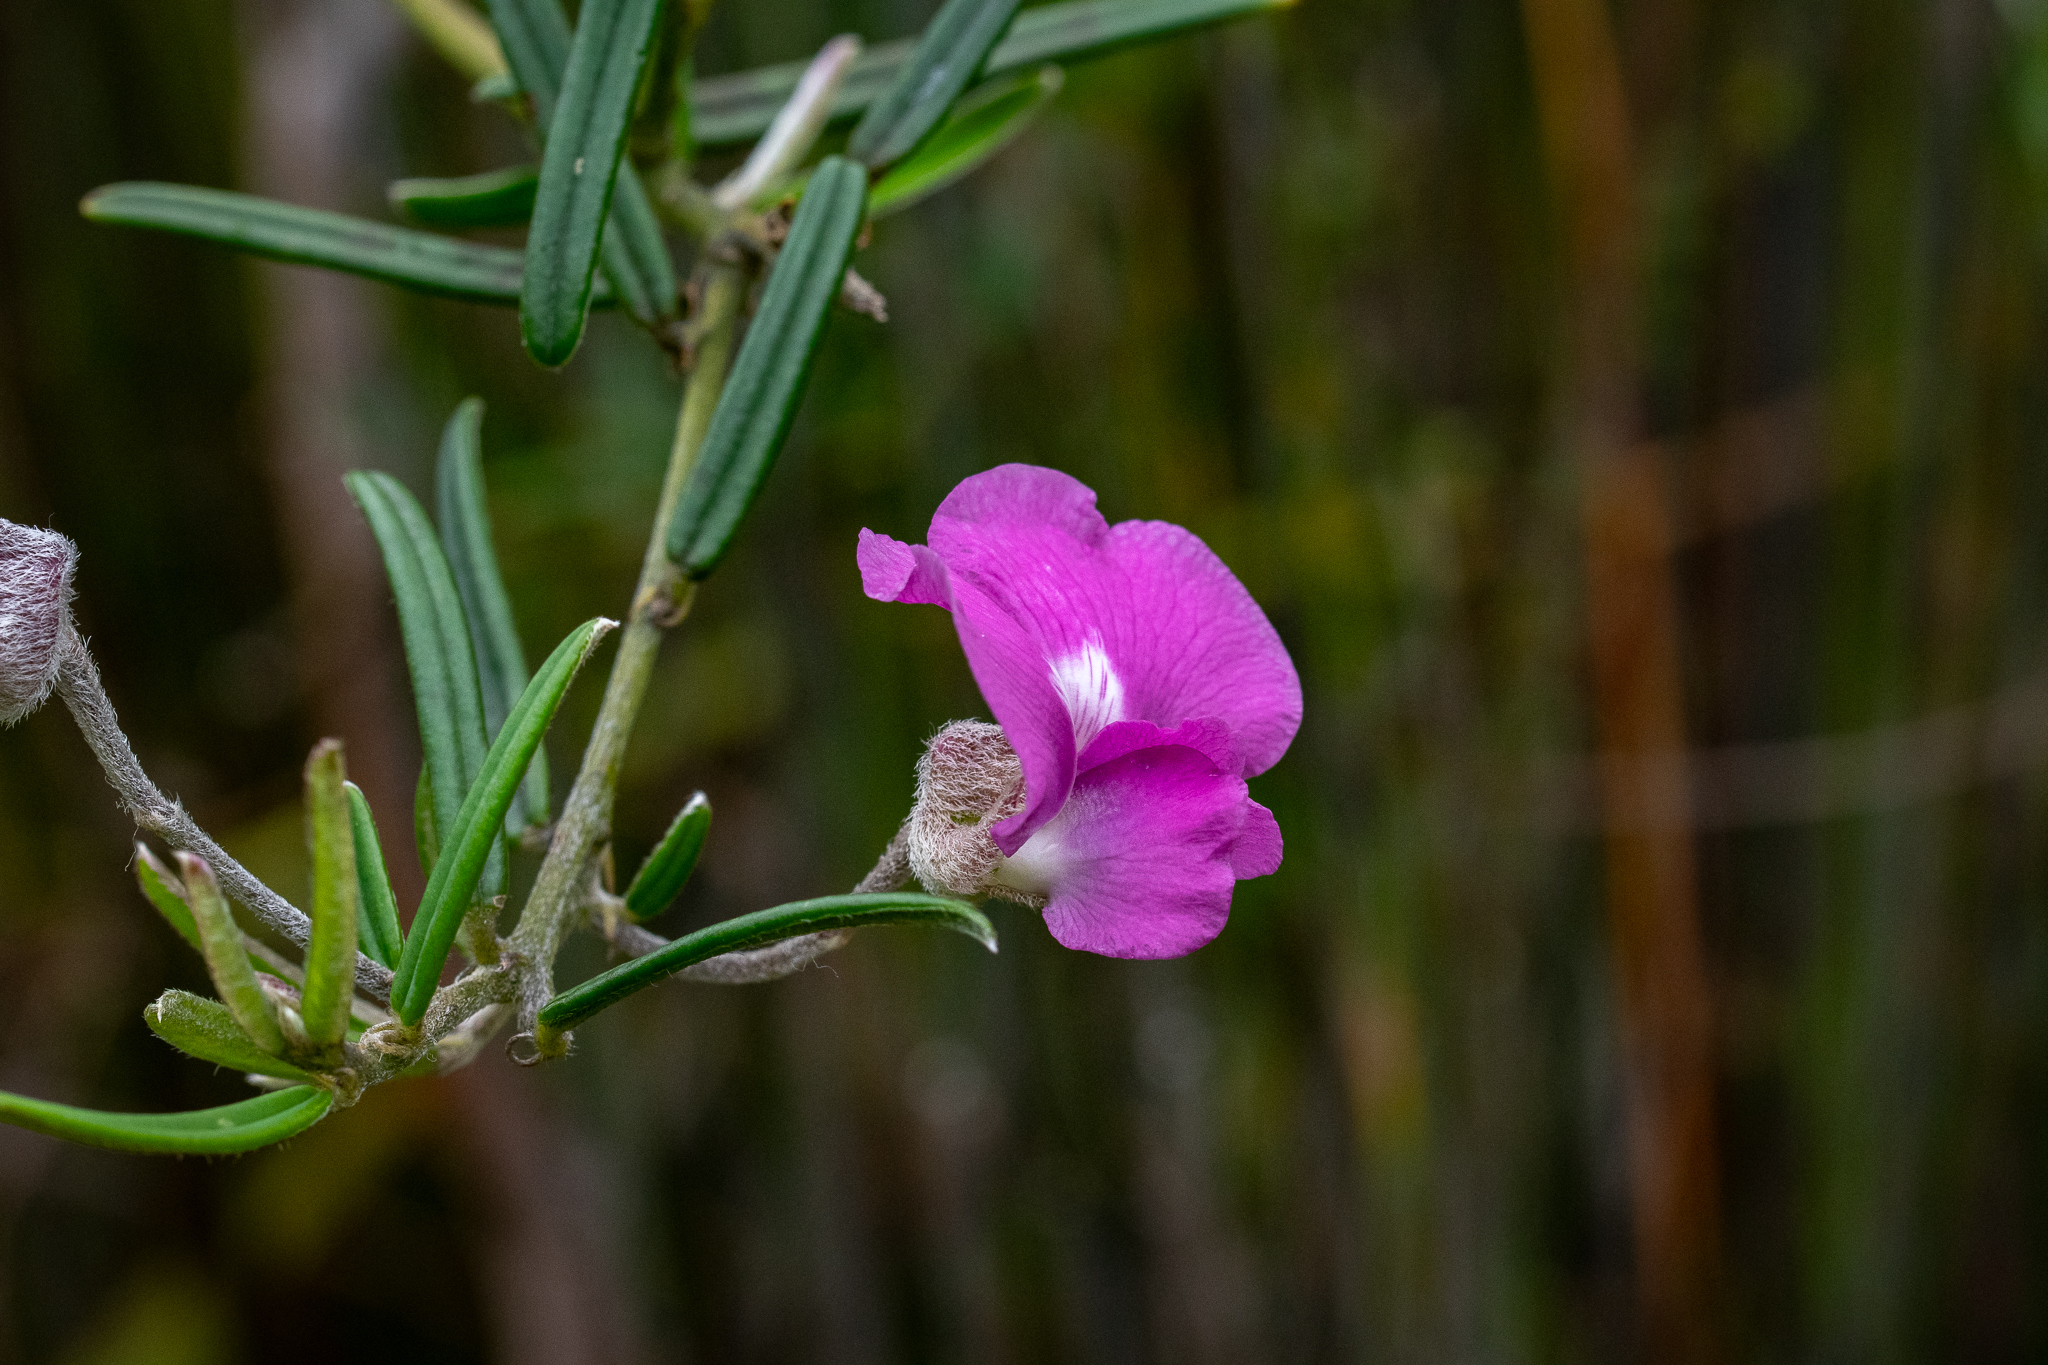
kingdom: Plantae
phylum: Tracheophyta
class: Magnoliopsida
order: Fabales
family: Fabaceae
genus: Podalyria
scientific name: Podalyria oleifolia
